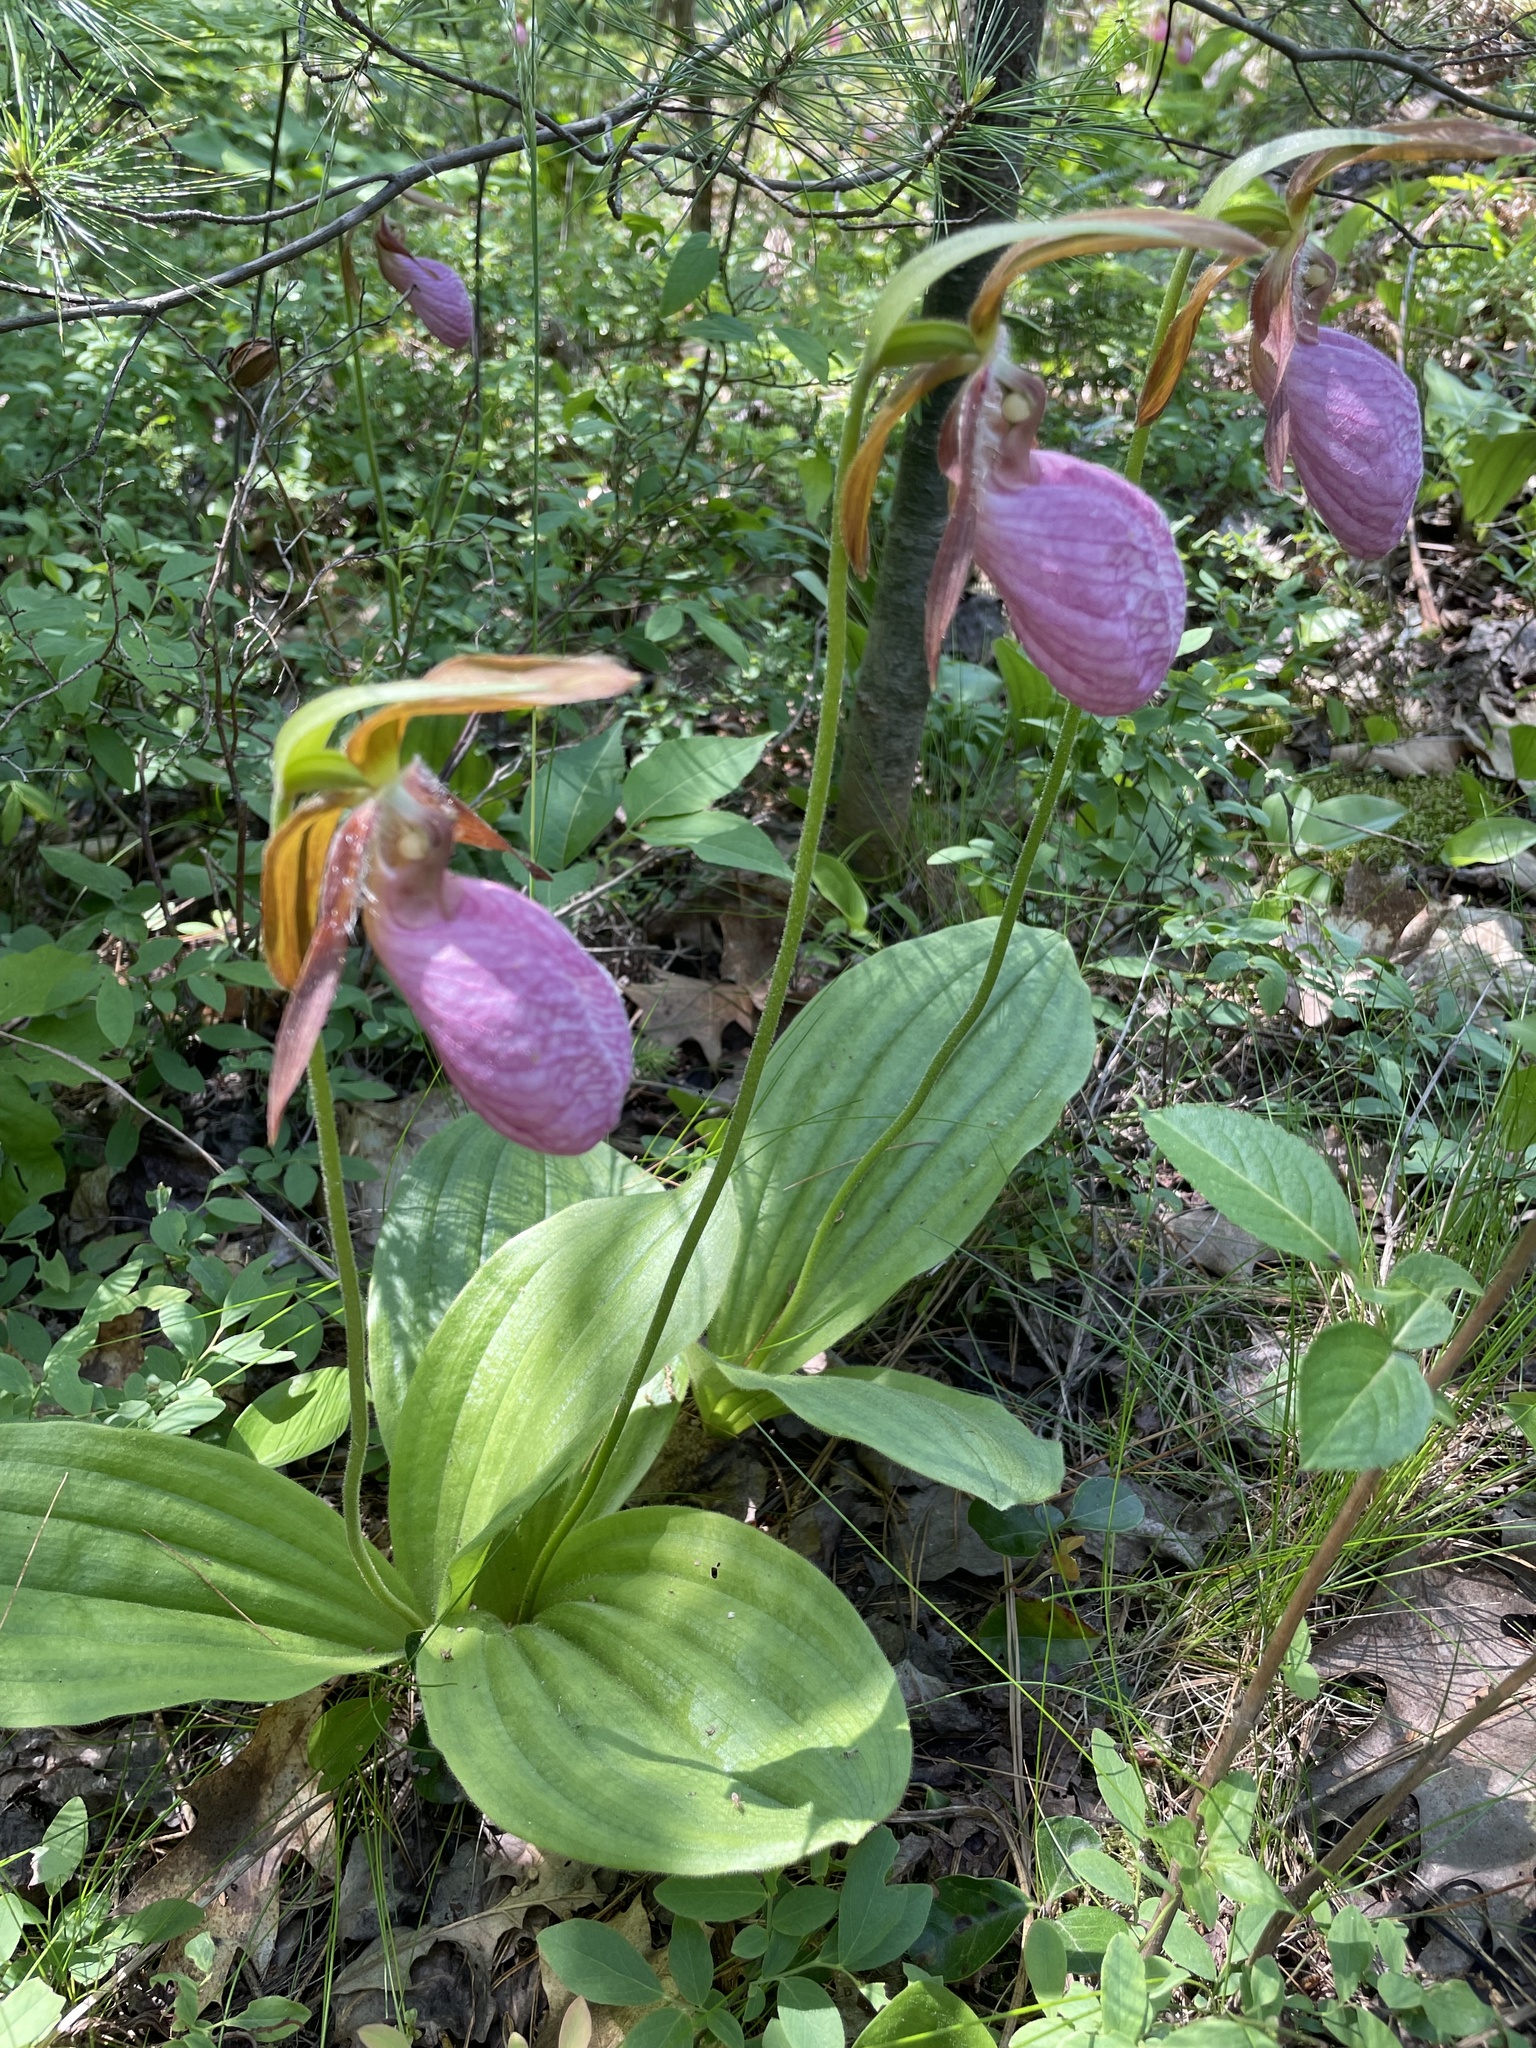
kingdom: Plantae
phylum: Tracheophyta
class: Liliopsida
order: Asparagales
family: Orchidaceae
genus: Cypripedium
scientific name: Cypripedium acaule
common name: Pink lady's-slipper
